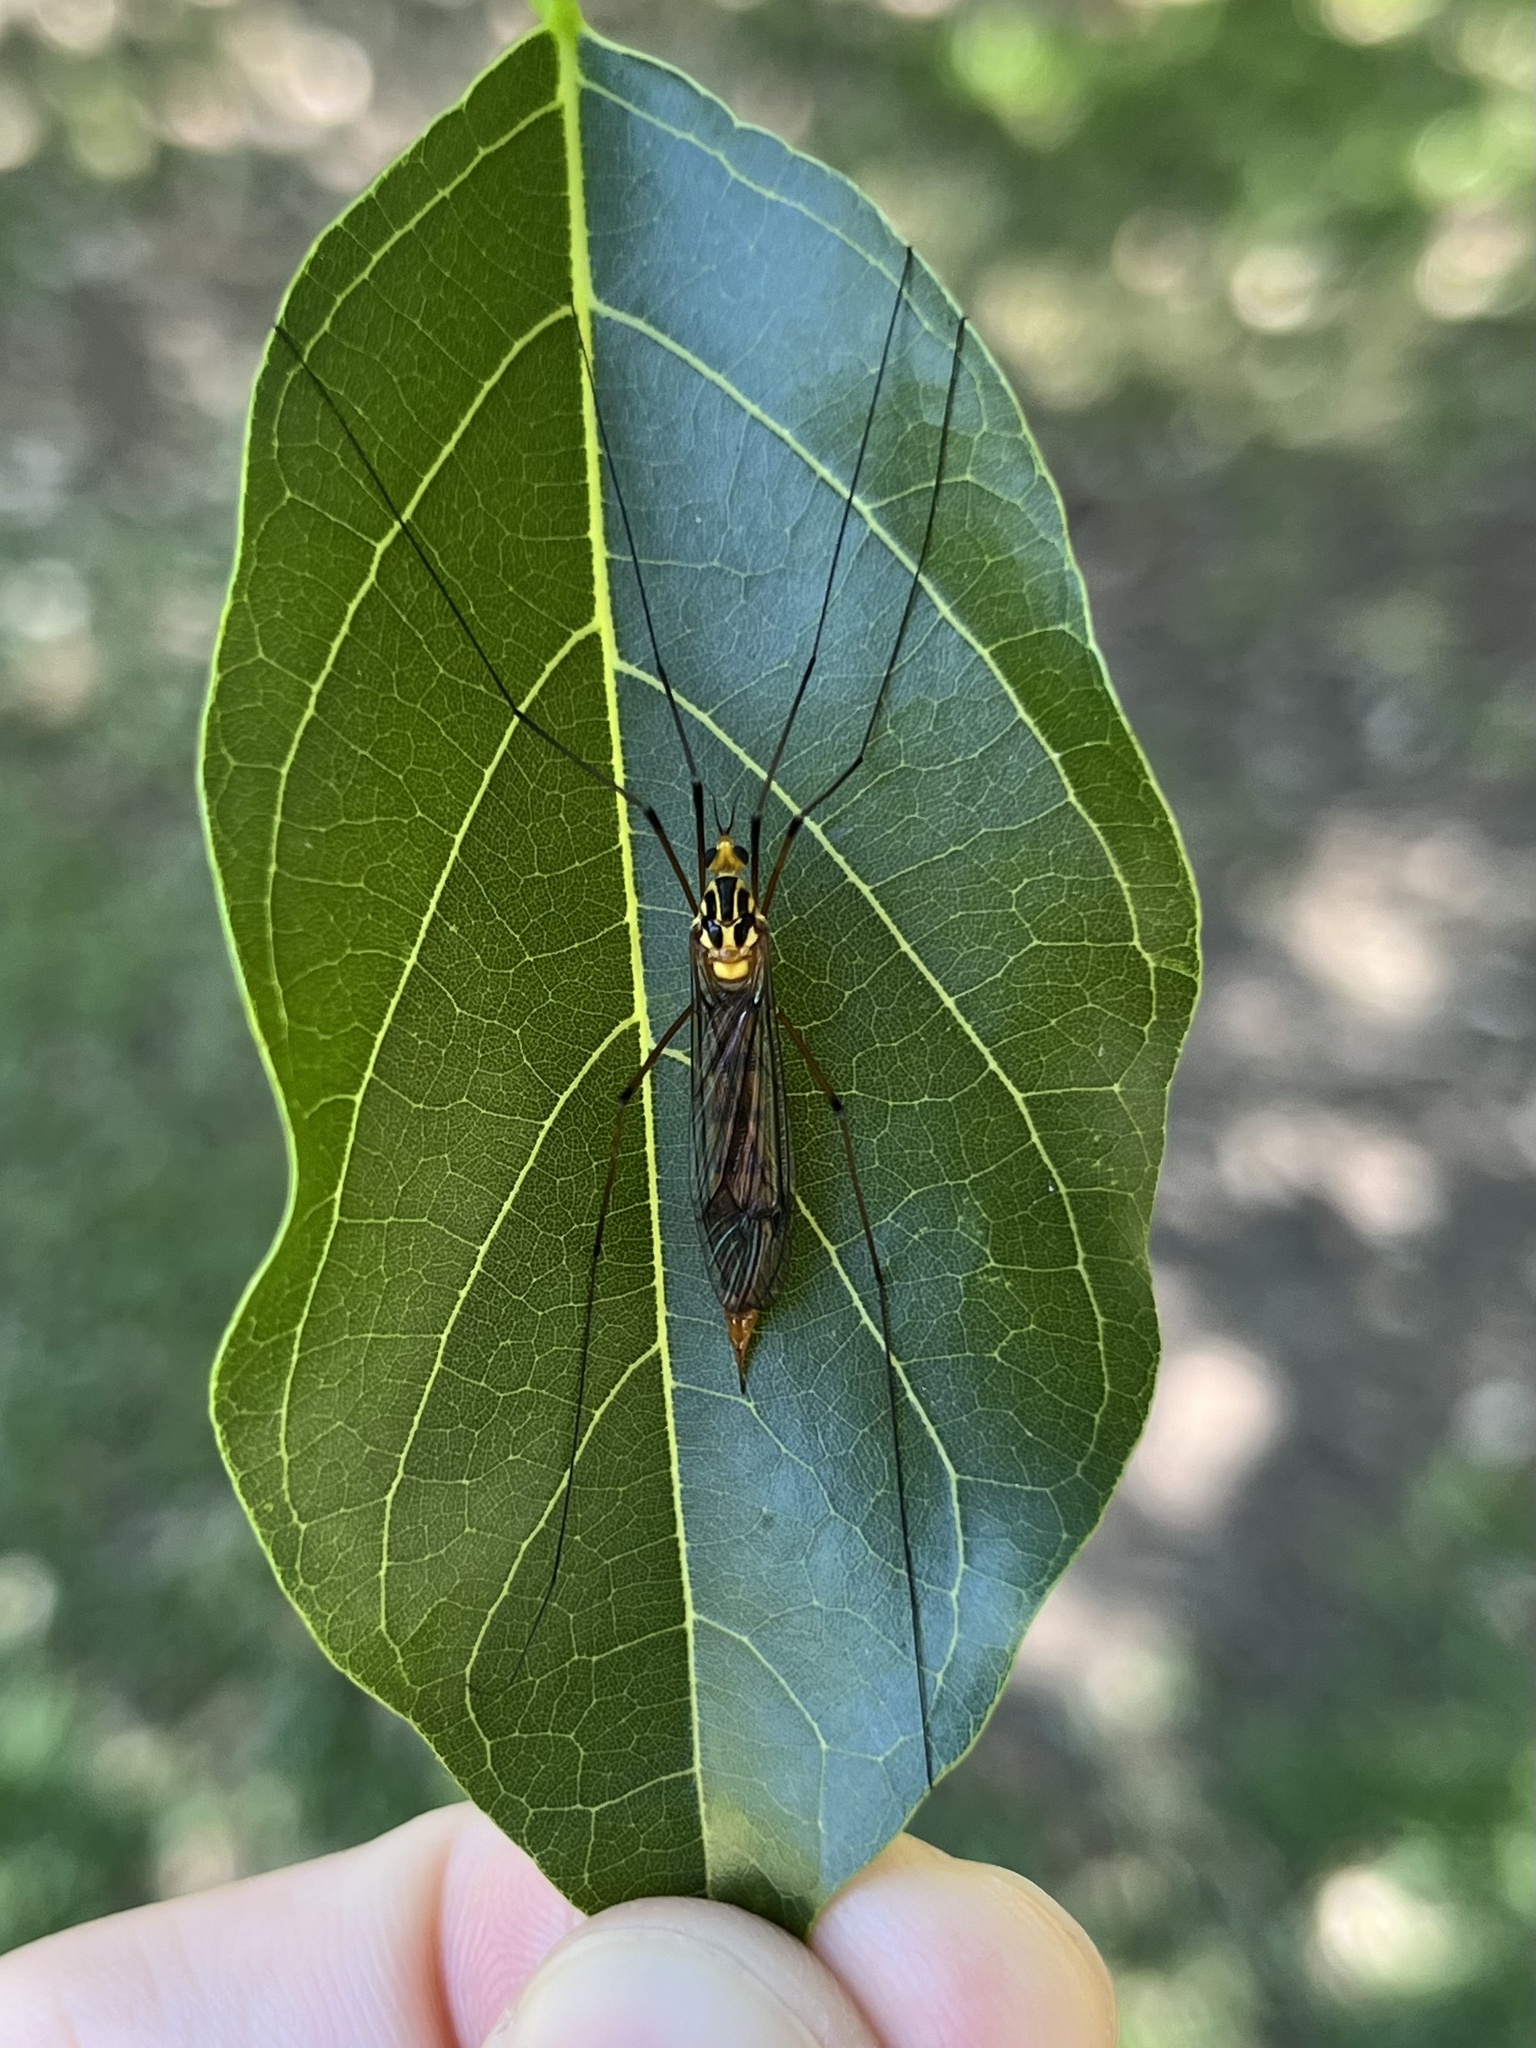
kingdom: Animalia
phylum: Arthropoda
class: Insecta
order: Diptera
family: Tipulidae
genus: Nephrotoma
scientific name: Nephrotoma australasiae
